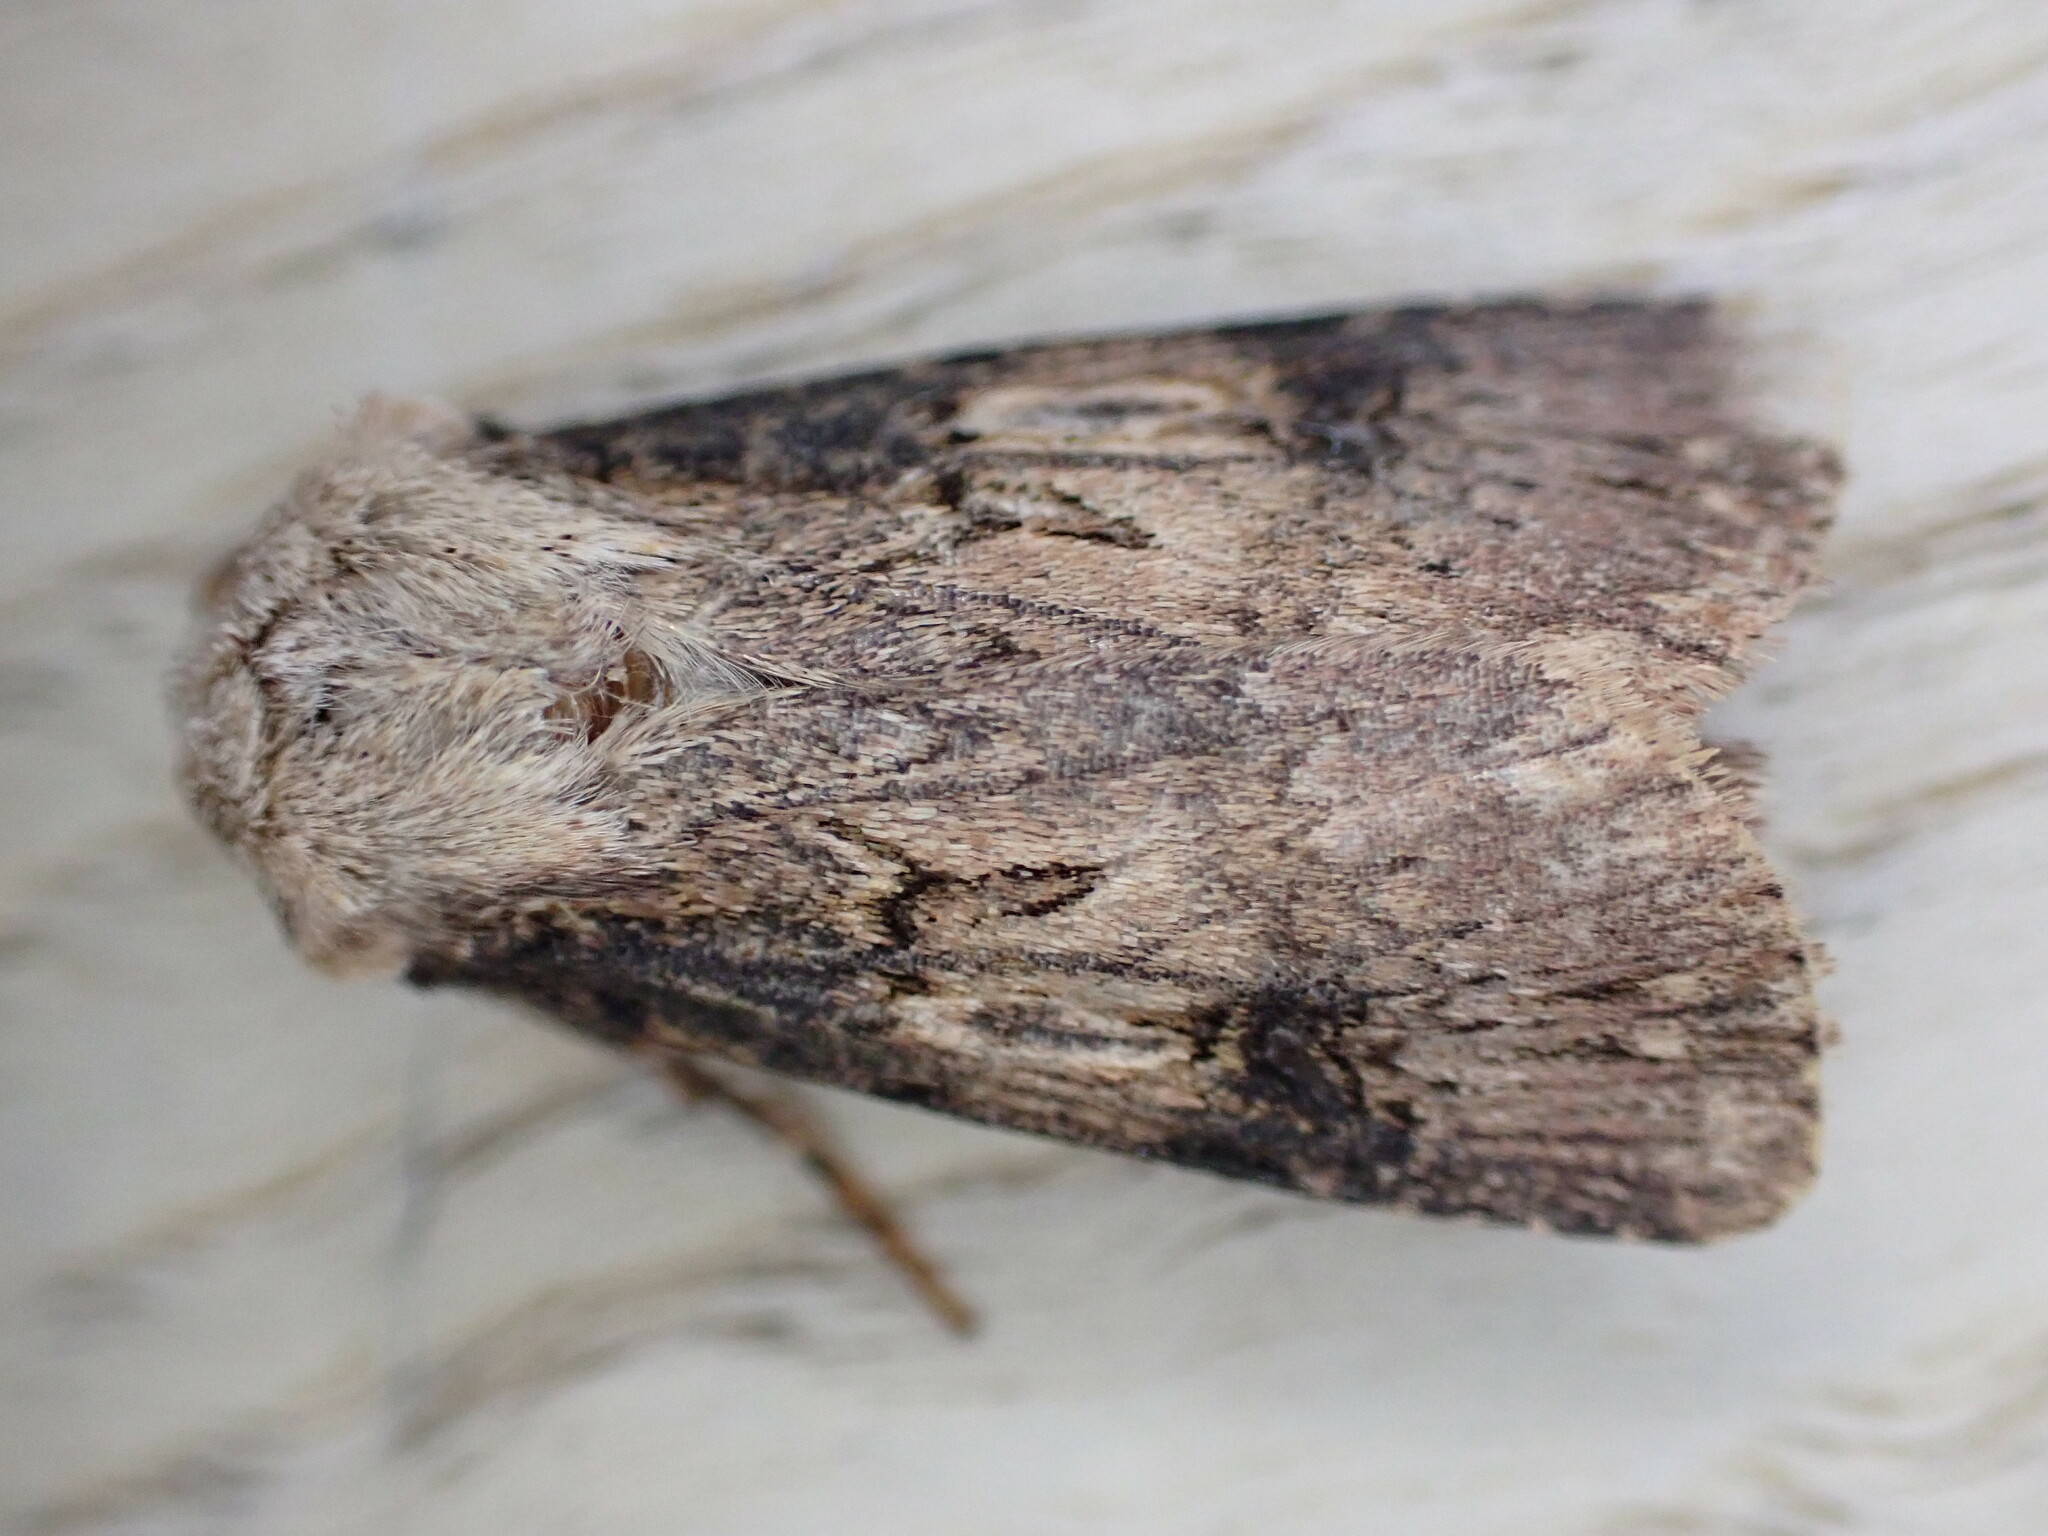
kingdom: Animalia
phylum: Arthropoda
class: Insecta
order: Lepidoptera
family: Noctuidae
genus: Agrotis
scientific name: Agrotis puta
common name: Shuttle-shaped dart
